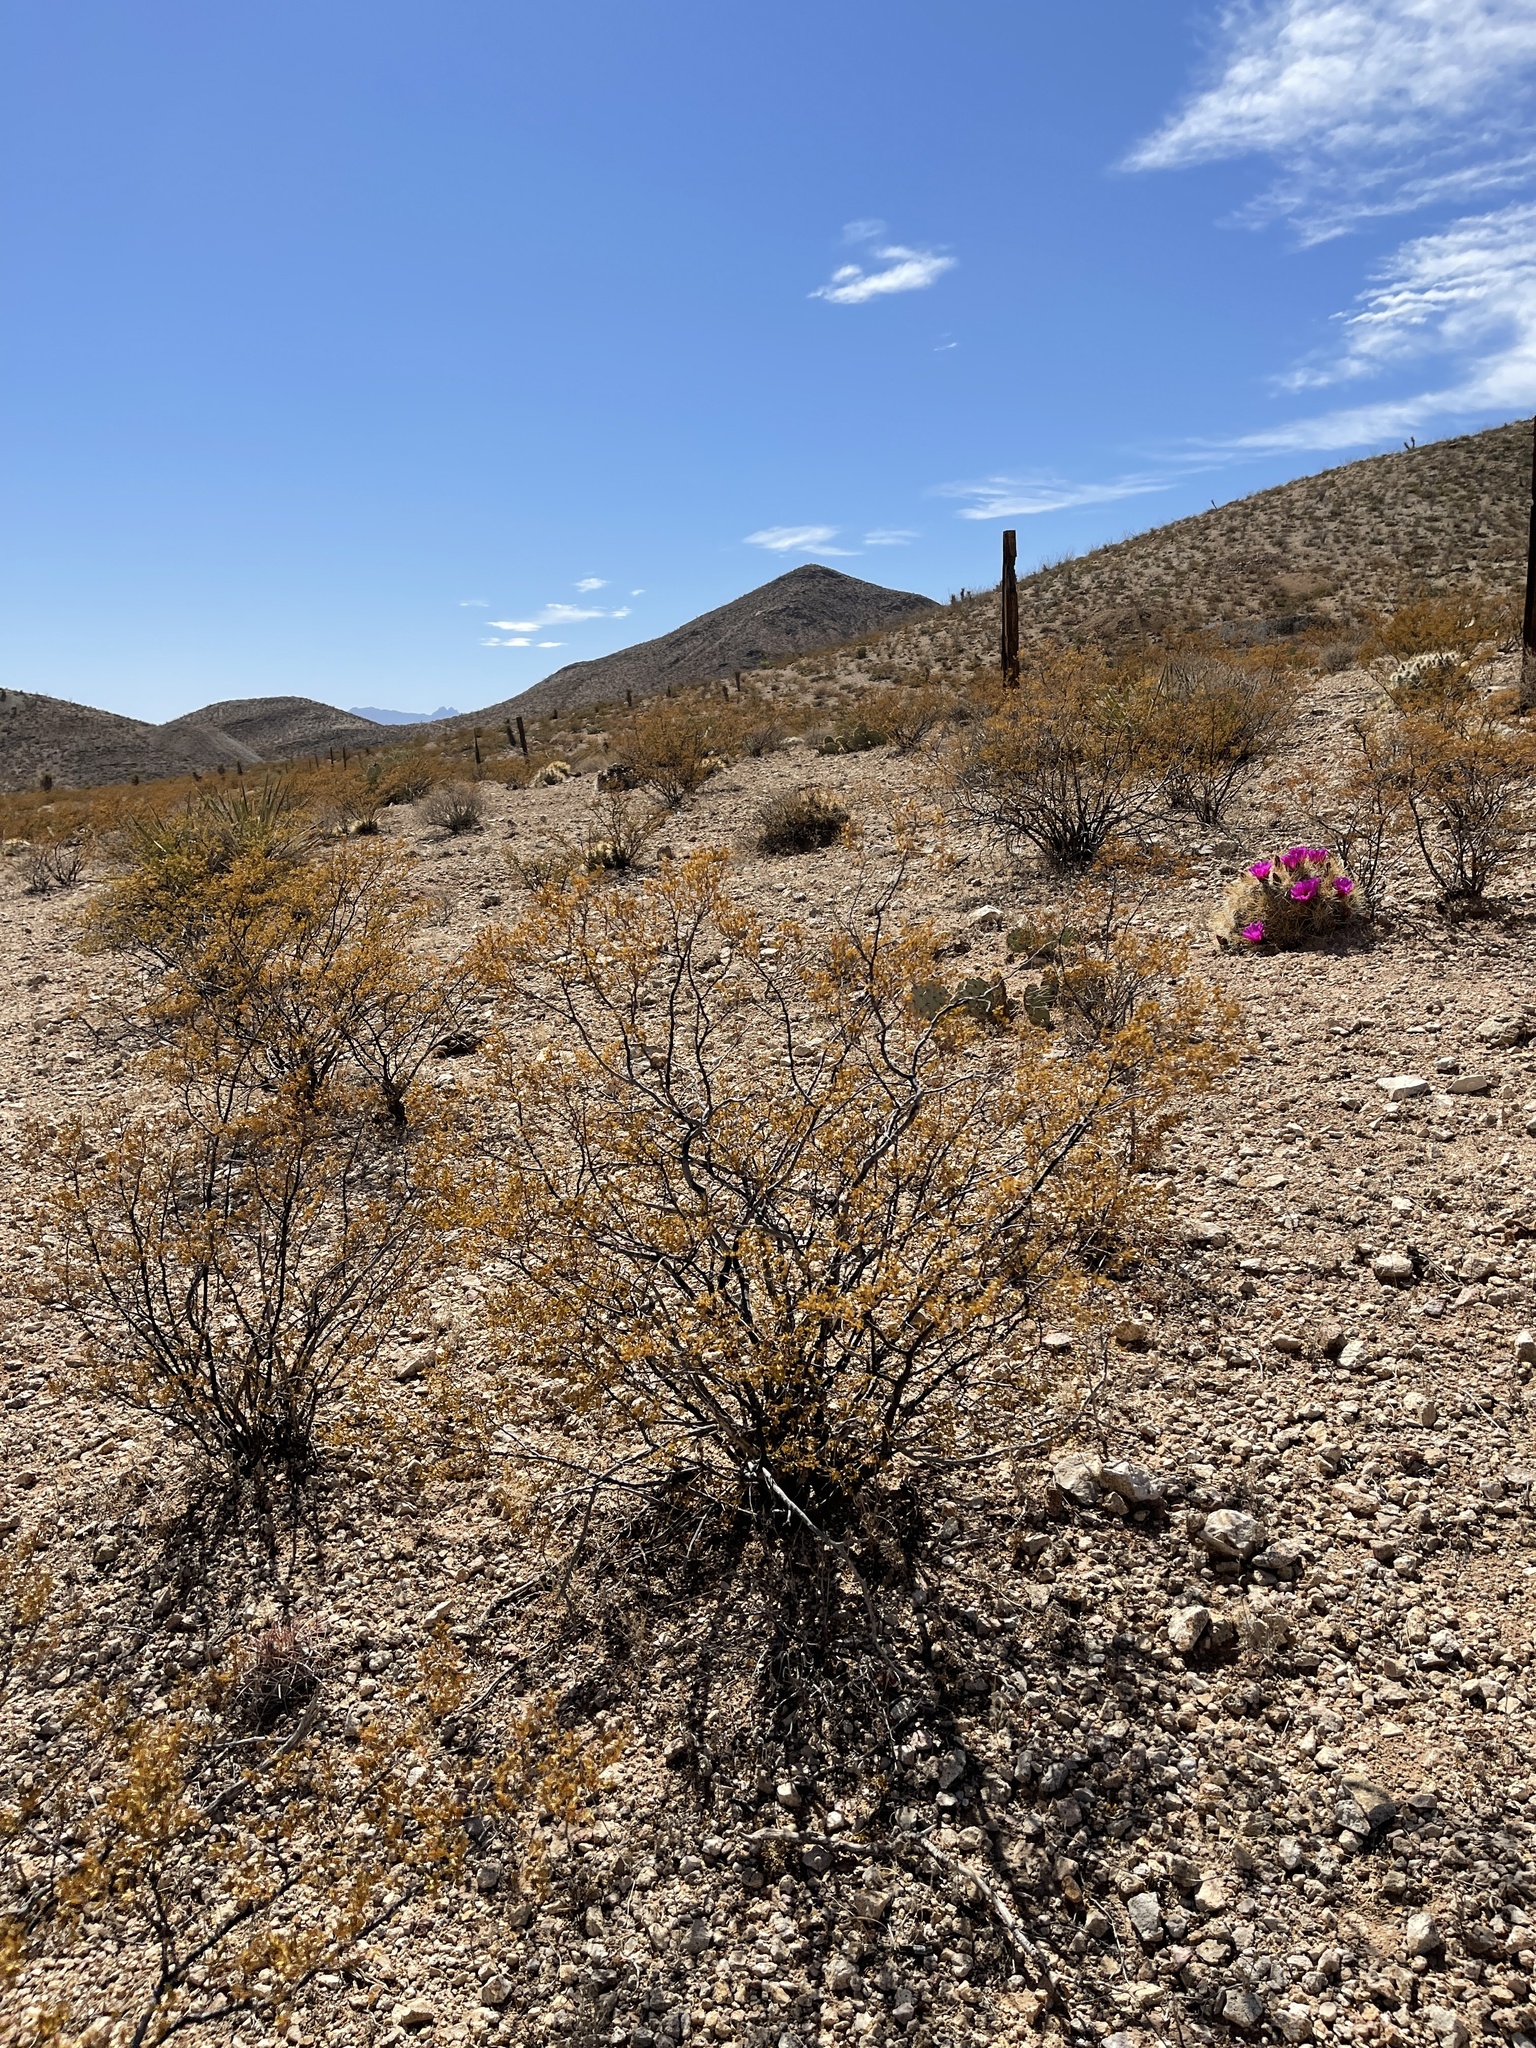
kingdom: Plantae
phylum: Tracheophyta
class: Magnoliopsida
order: Zygophyllales
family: Zygophyllaceae
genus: Larrea
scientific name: Larrea tridentata
